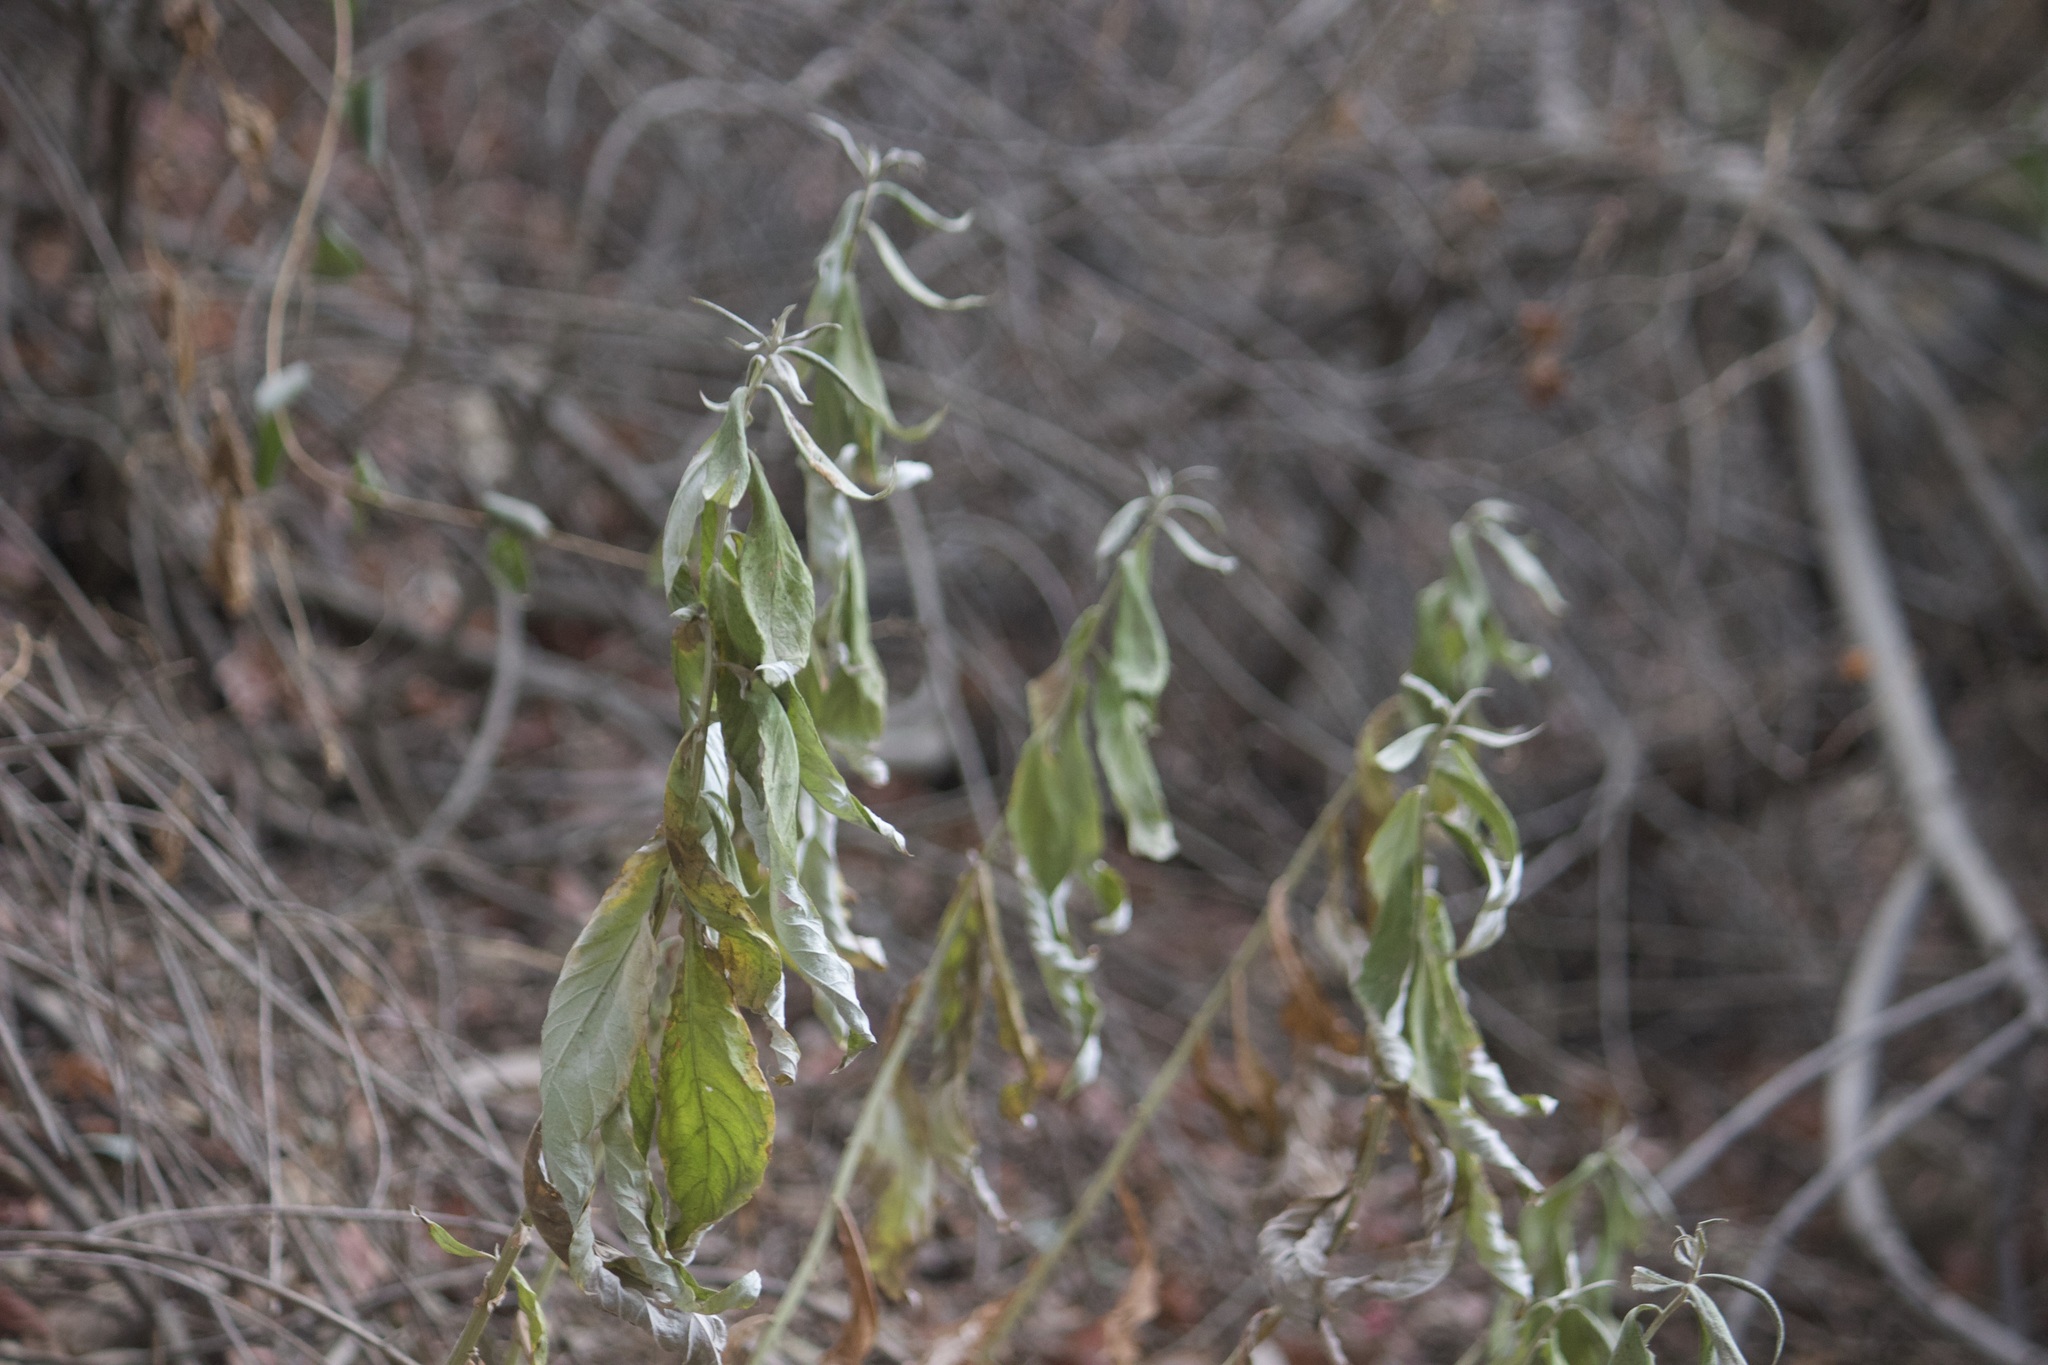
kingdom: Plantae
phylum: Tracheophyta
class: Magnoliopsida
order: Asterales
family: Asteraceae
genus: Artemisia
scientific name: Artemisia douglasiana
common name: Northwest mugwort
